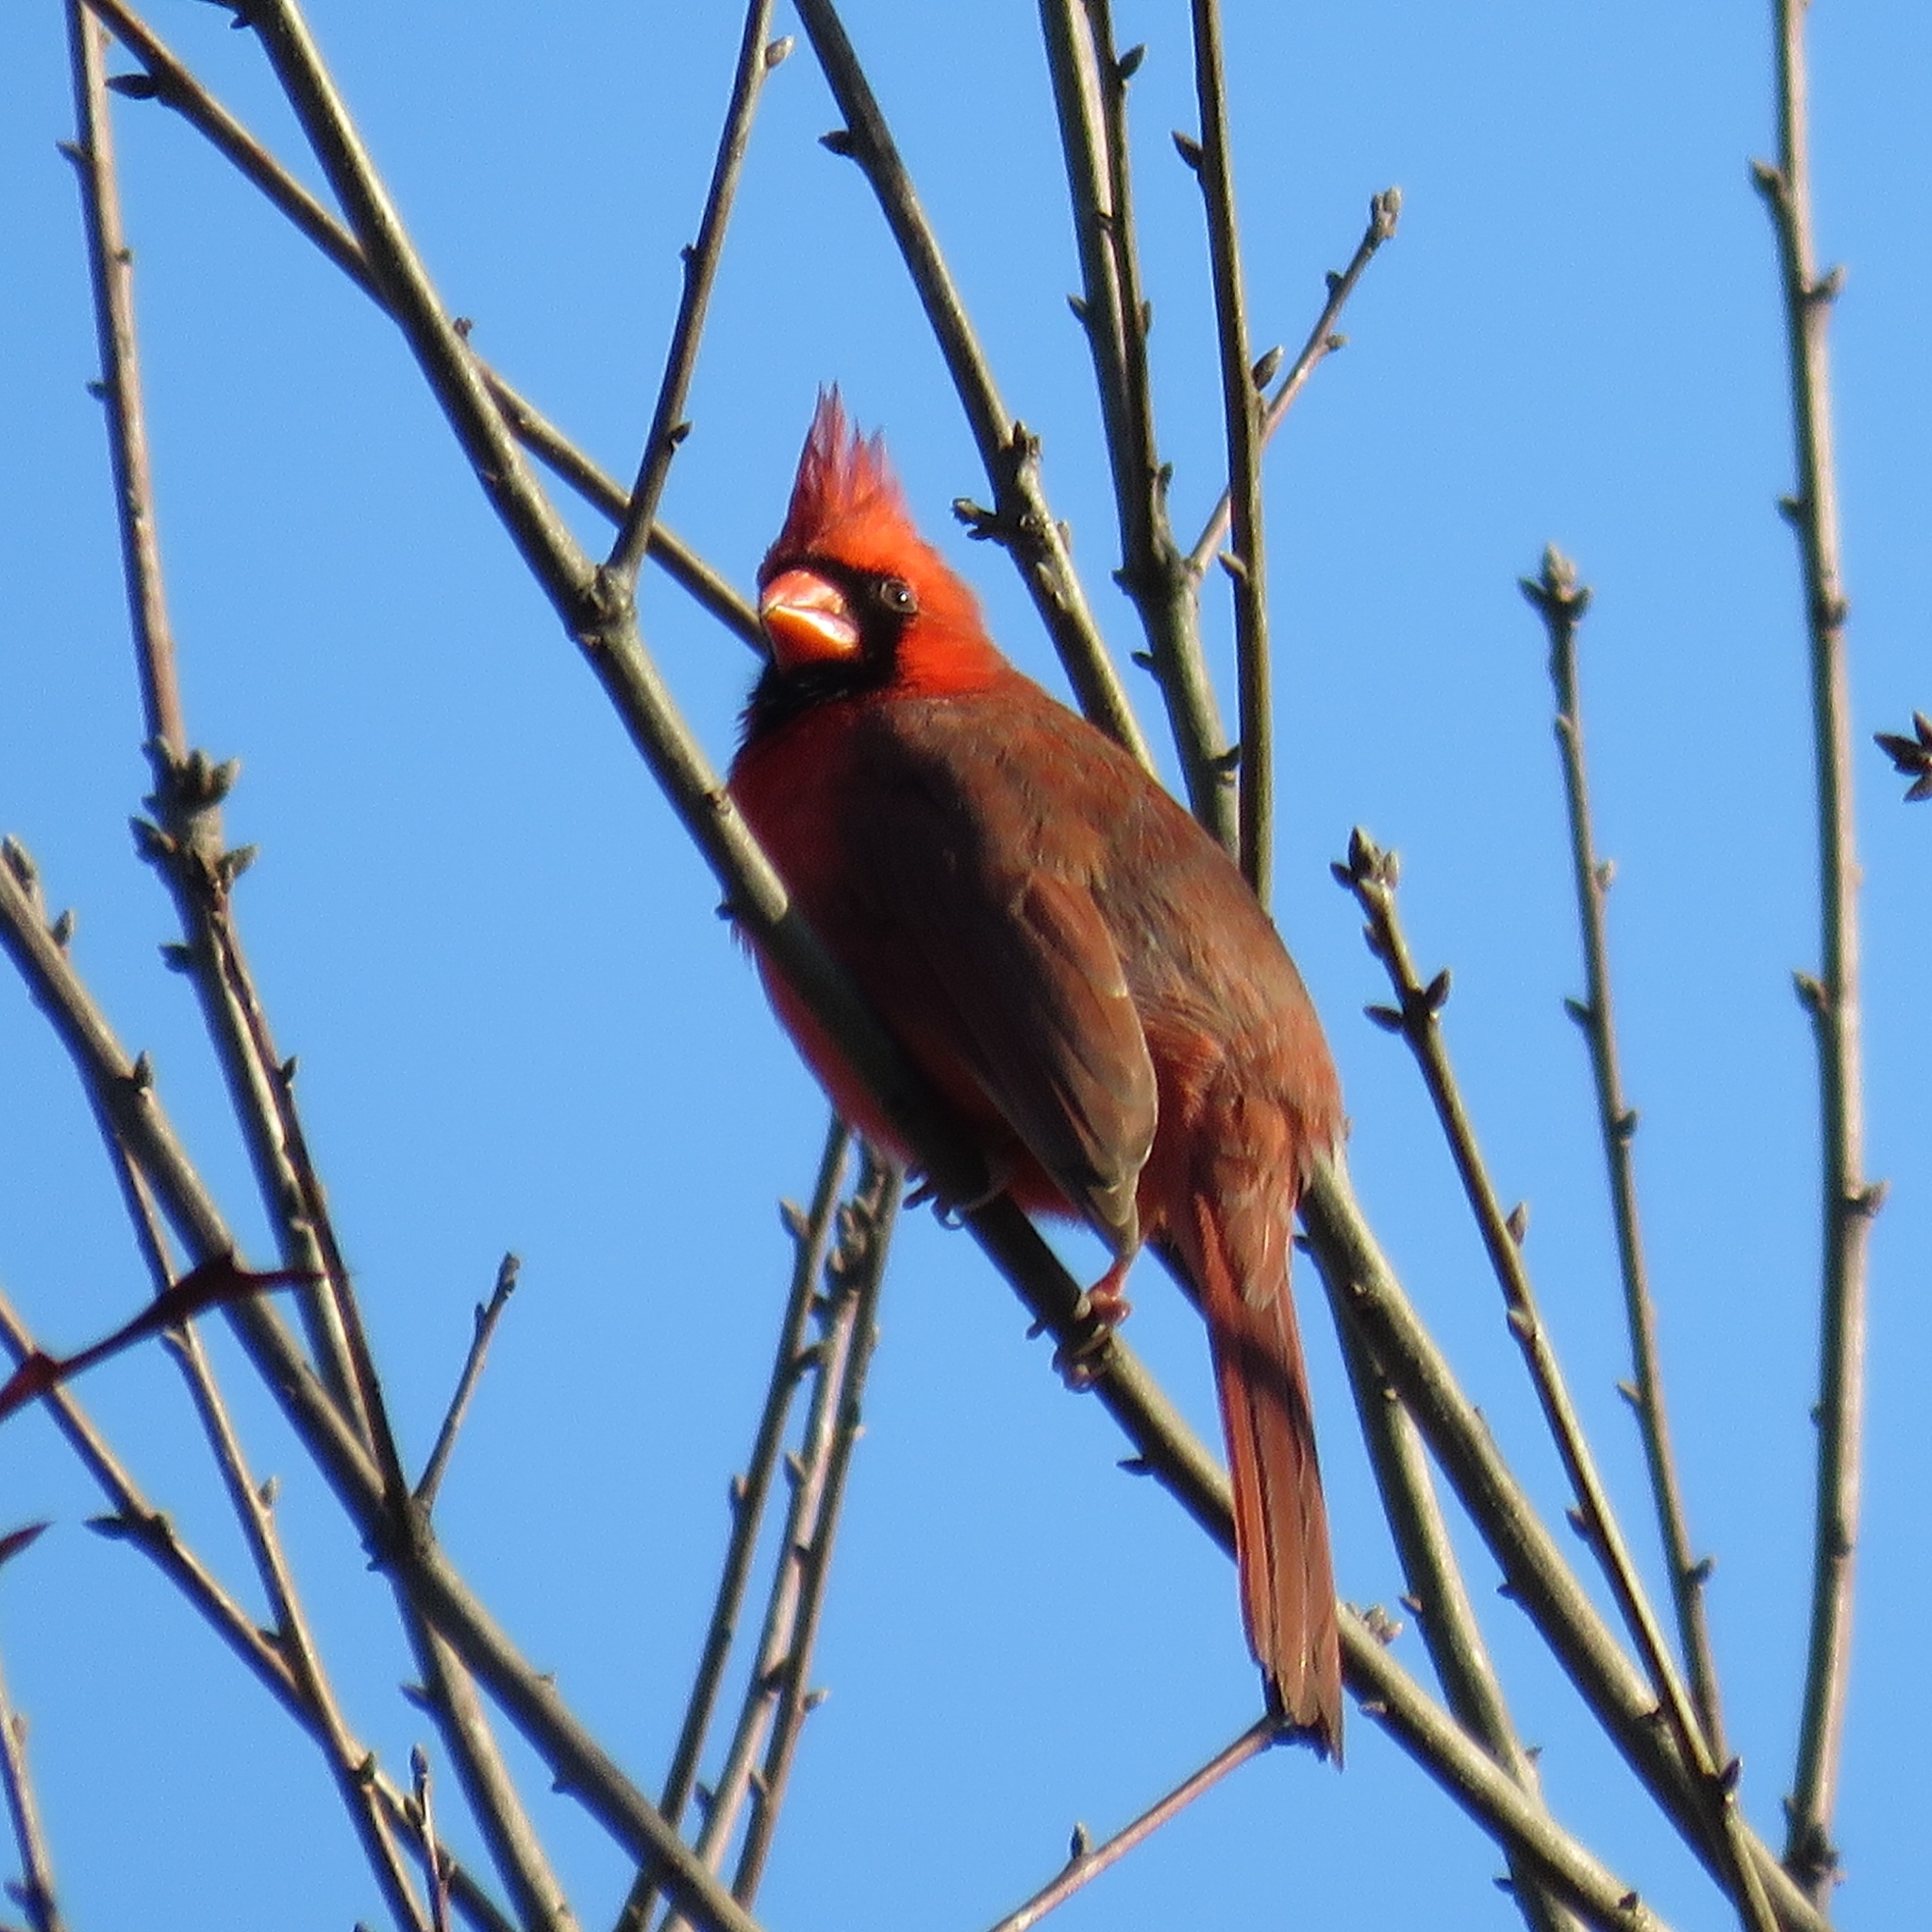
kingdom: Animalia
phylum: Chordata
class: Aves
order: Passeriformes
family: Cardinalidae
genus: Cardinalis
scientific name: Cardinalis cardinalis
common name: Northern cardinal
